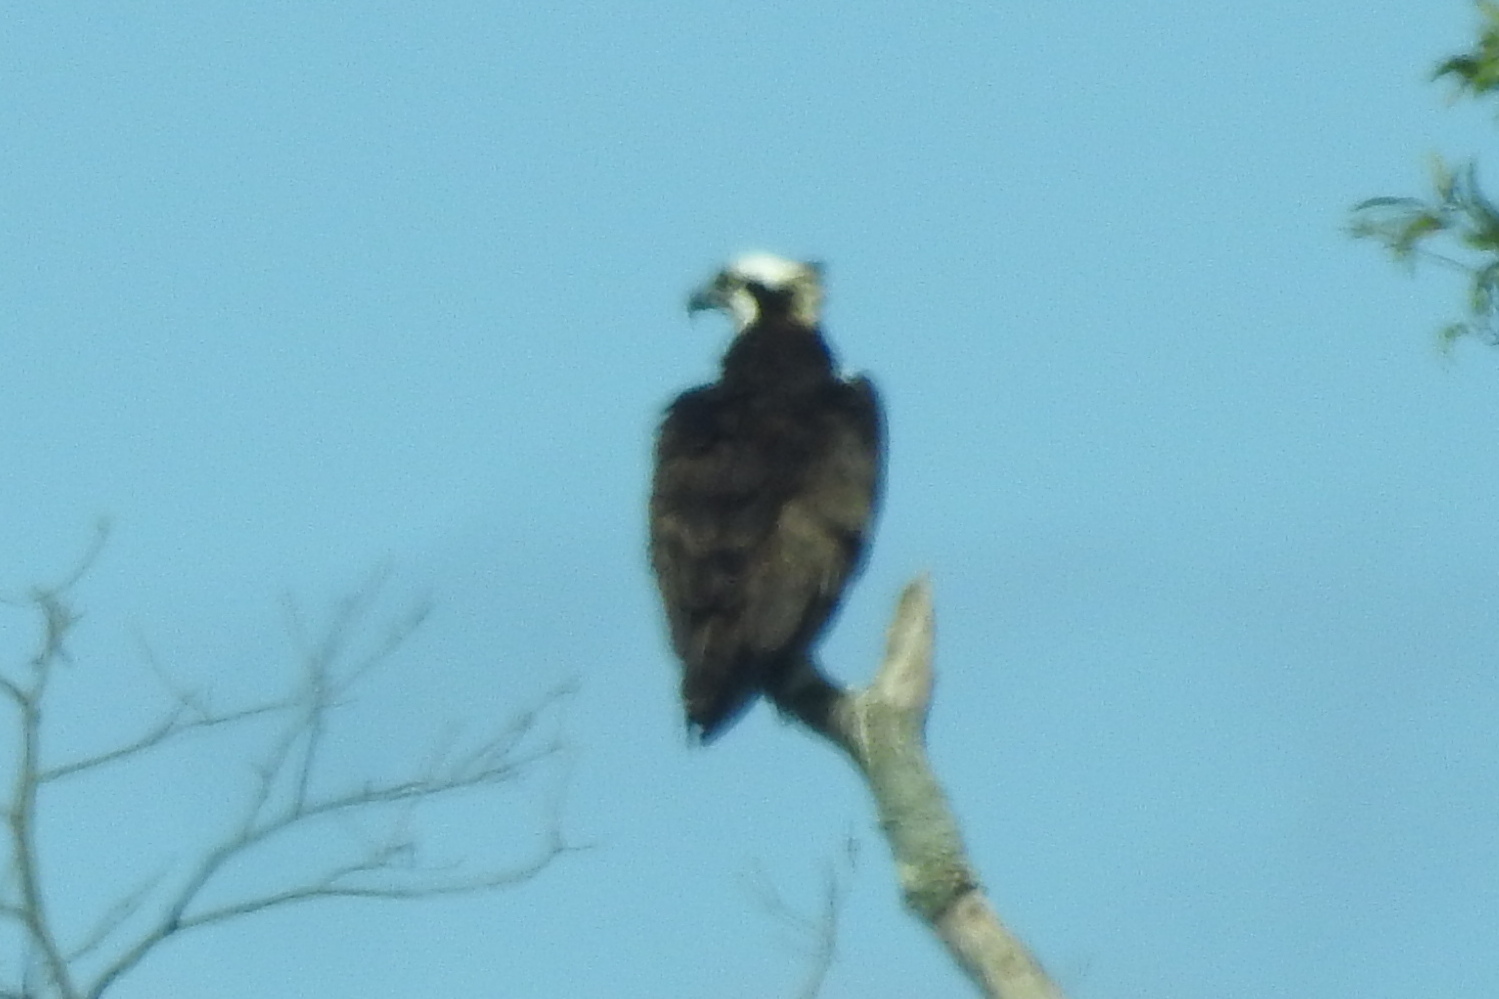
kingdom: Animalia
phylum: Chordata
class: Aves
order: Accipitriformes
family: Pandionidae
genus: Pandion
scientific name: Pandion haliaetus
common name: Osprey
